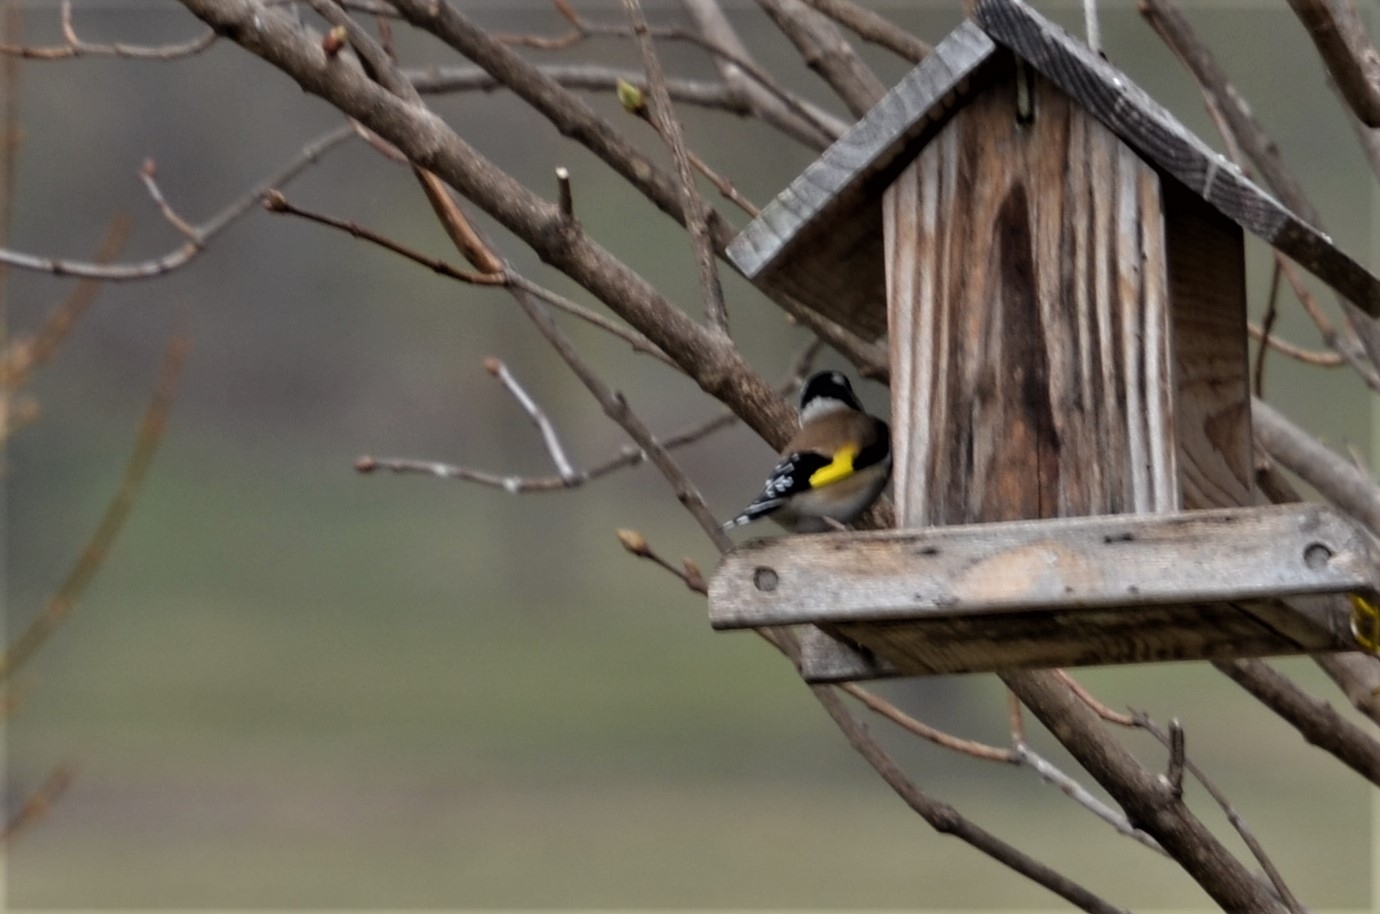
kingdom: Animalia
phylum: Chordata
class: Aves
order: Passeriformes
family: Fringillidae
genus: Carduelis
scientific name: Carduelis carduelis
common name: European goldfinch
